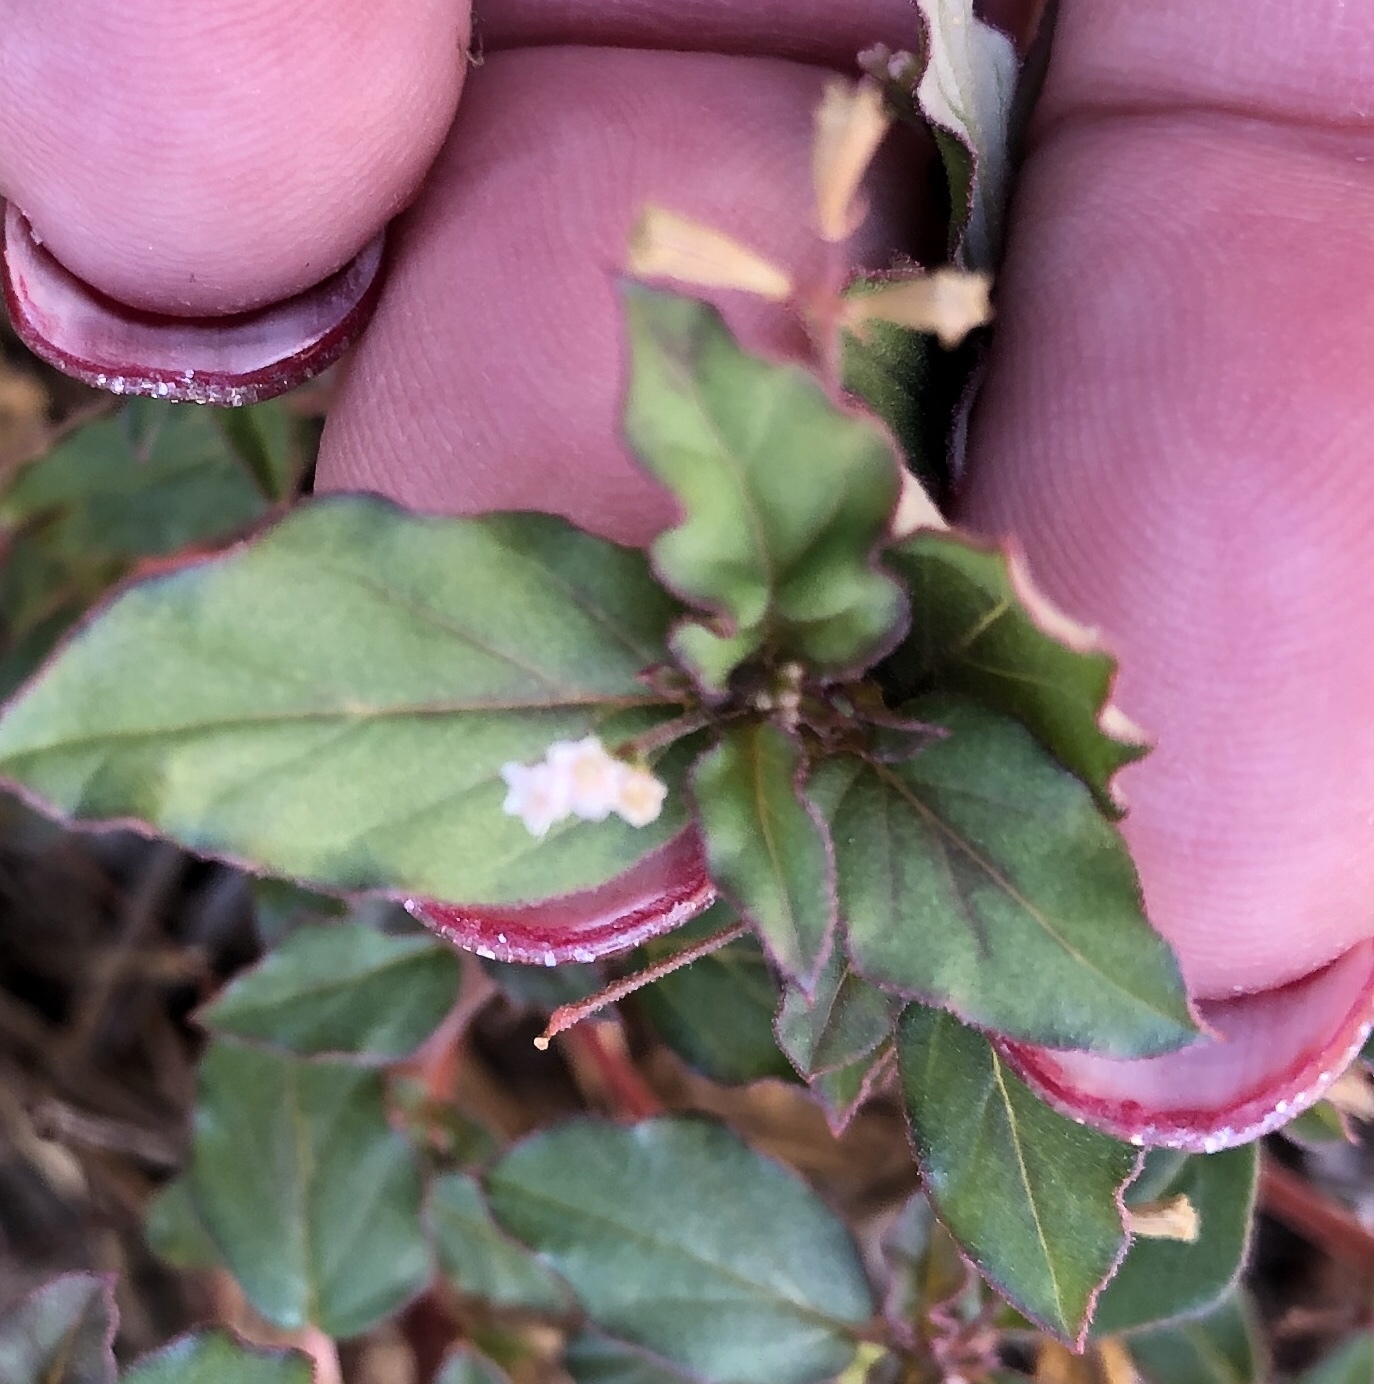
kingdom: Plantae
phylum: Tracheophyta
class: Magnoliopsida
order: Caryophyllales
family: Nyctaginaceae
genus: Boerhavia
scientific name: Boerhavia erecta
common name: Erect spiderling
